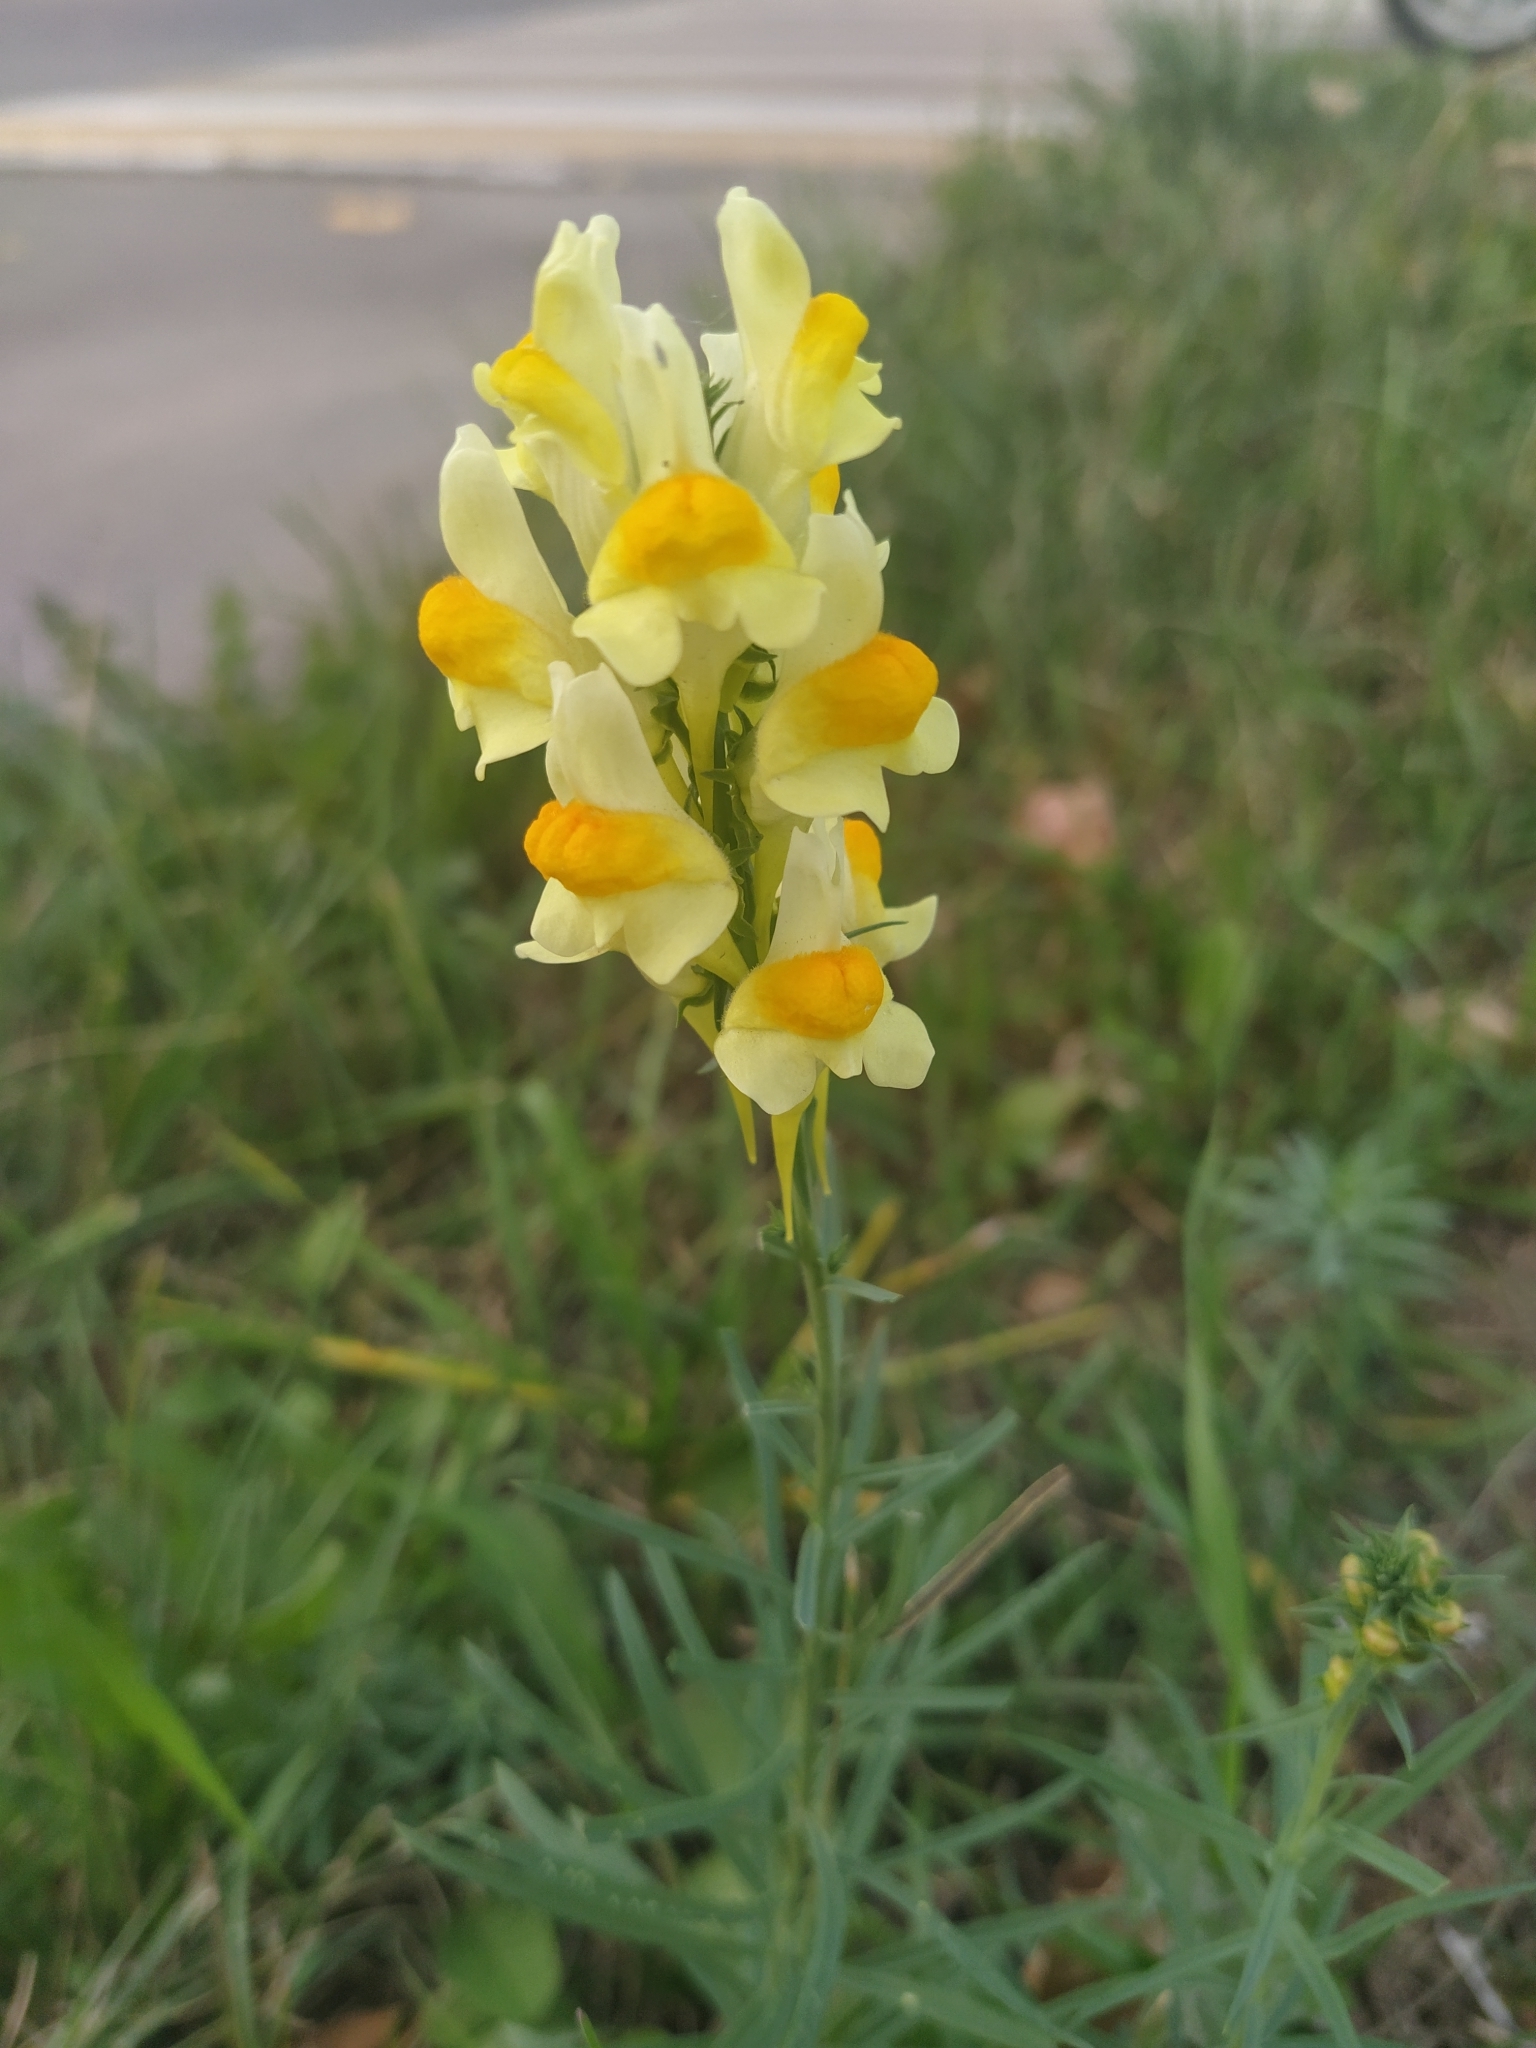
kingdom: Plantae
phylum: Tracheophyta
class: Magnoliopsida
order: Lamiales
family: Plantaginaceae
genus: Linaria
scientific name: Linaria vulgaris
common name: Butter and eggs
